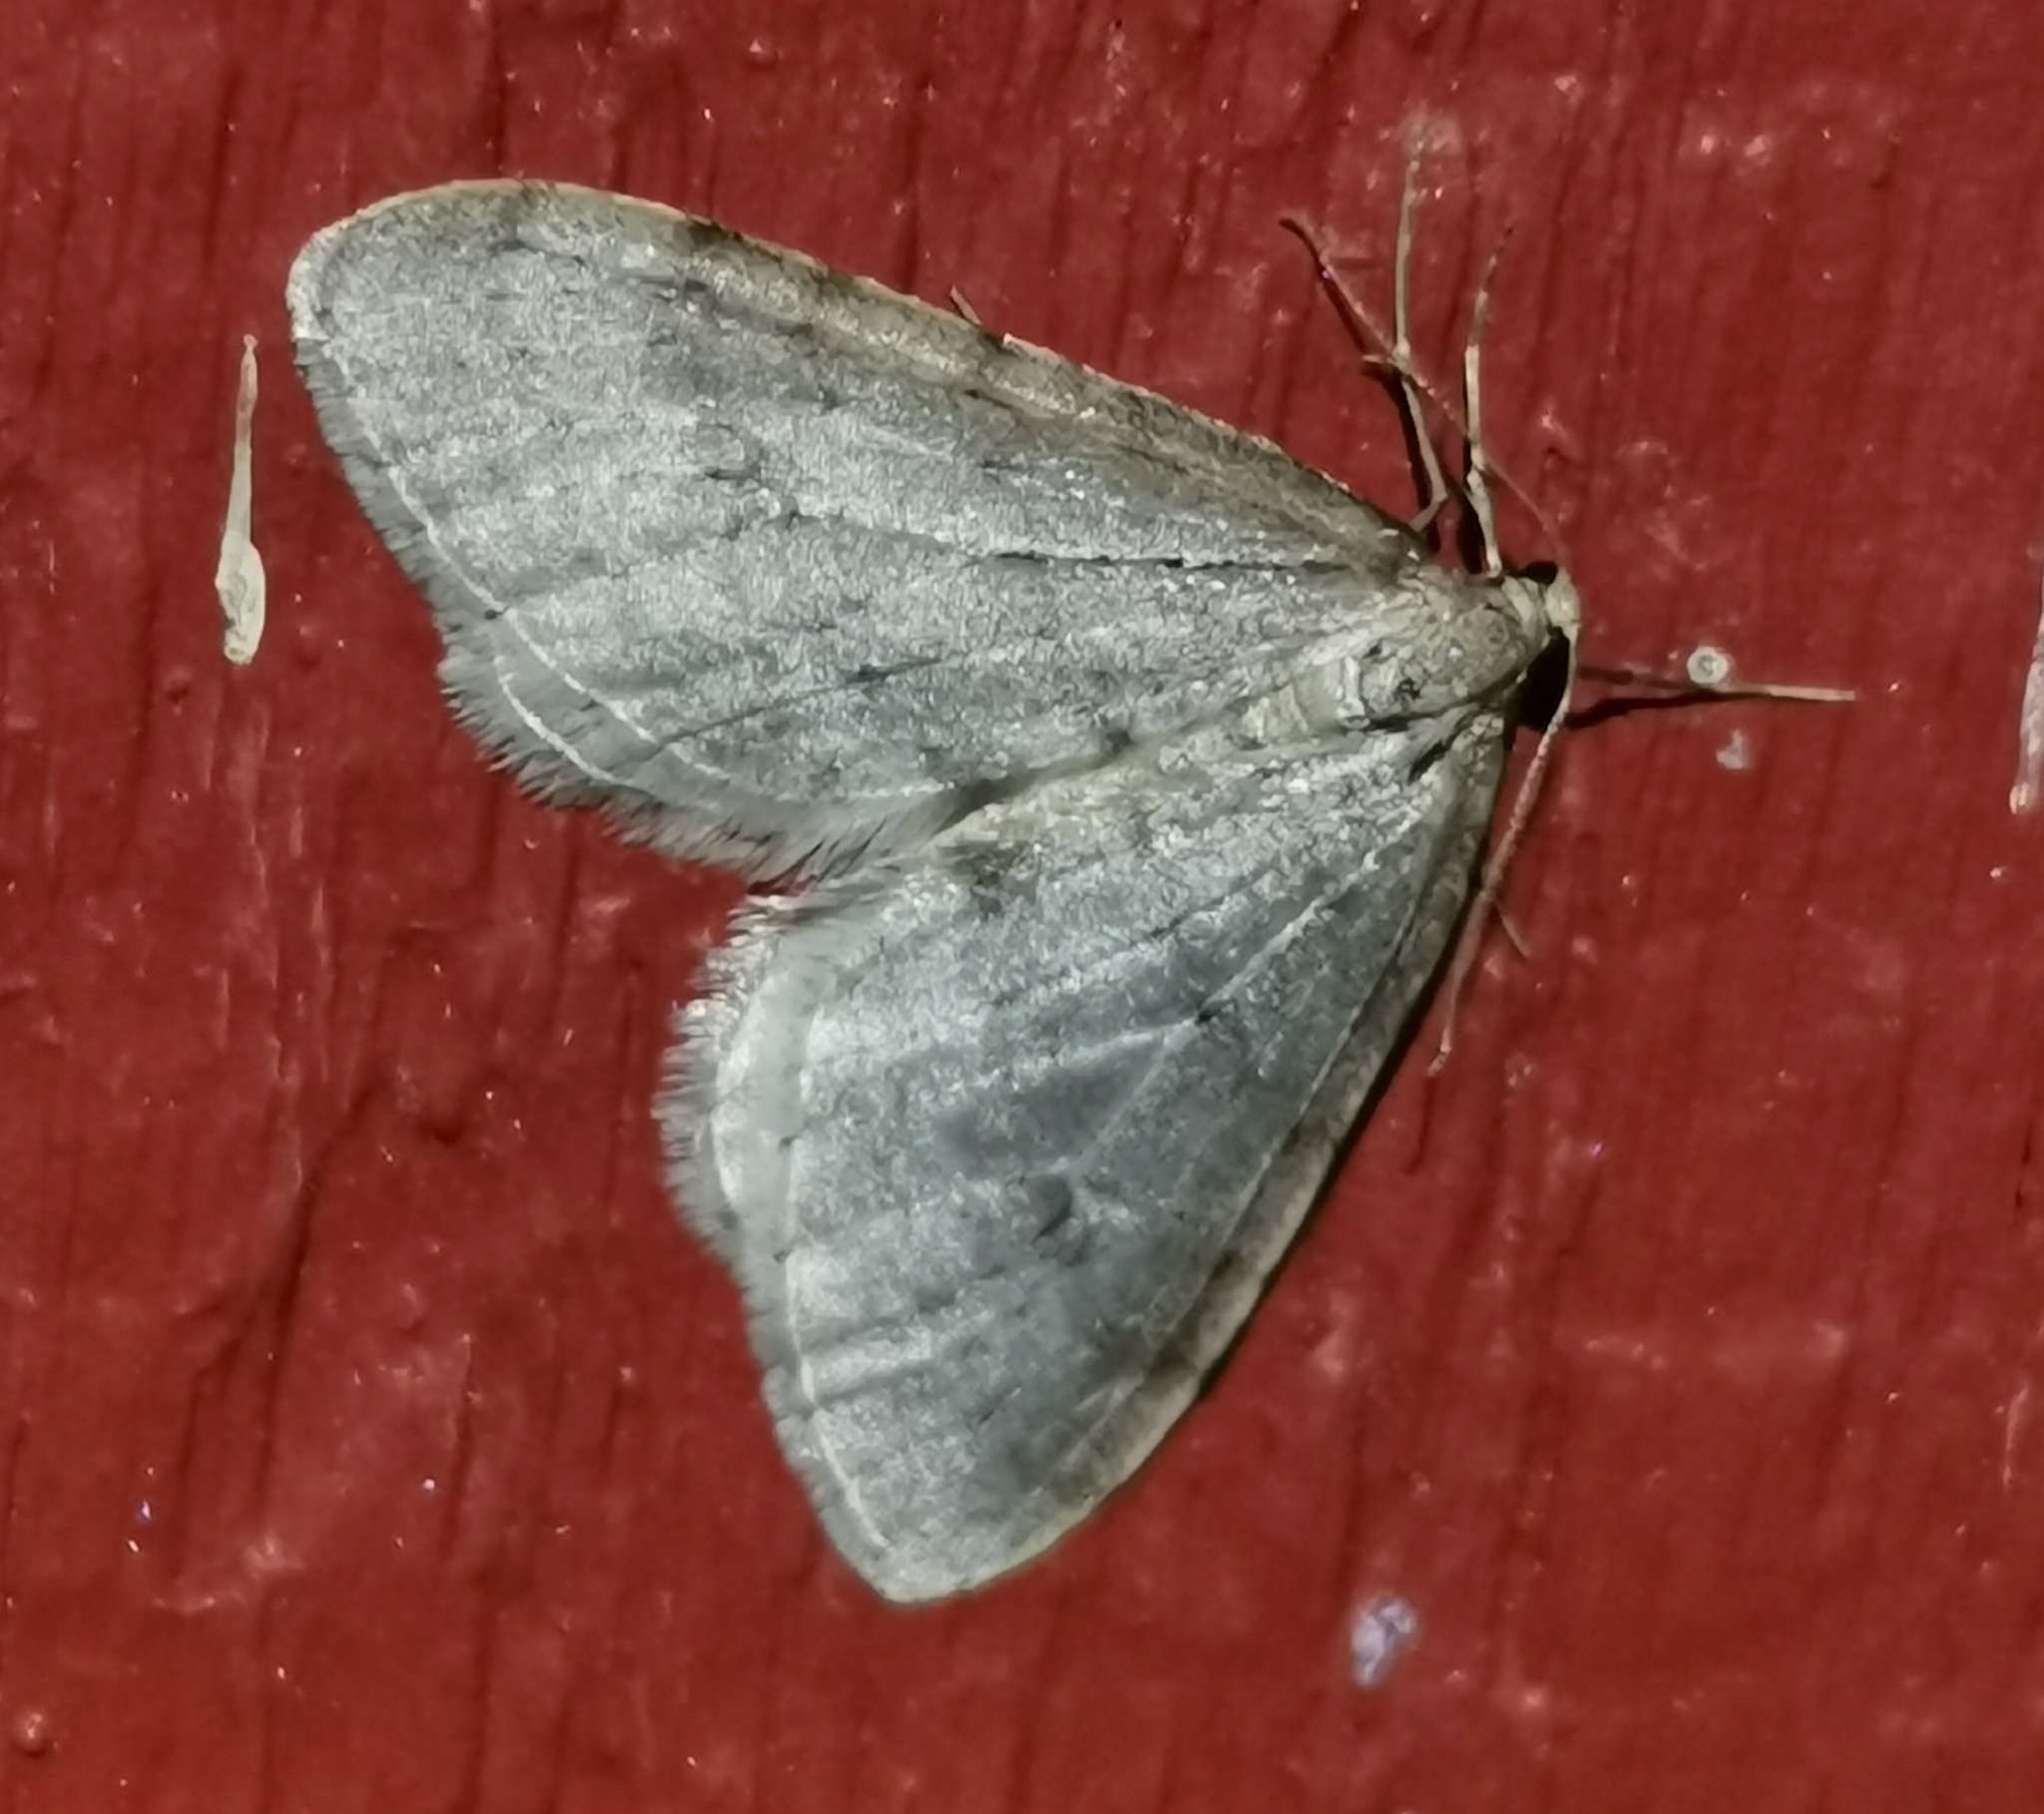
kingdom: Animalia
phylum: Arthropoda
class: Insecta
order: Lepidoptera
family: Geometridae
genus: Operophtera
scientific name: Operophtera fagata
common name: Northern winter moth
